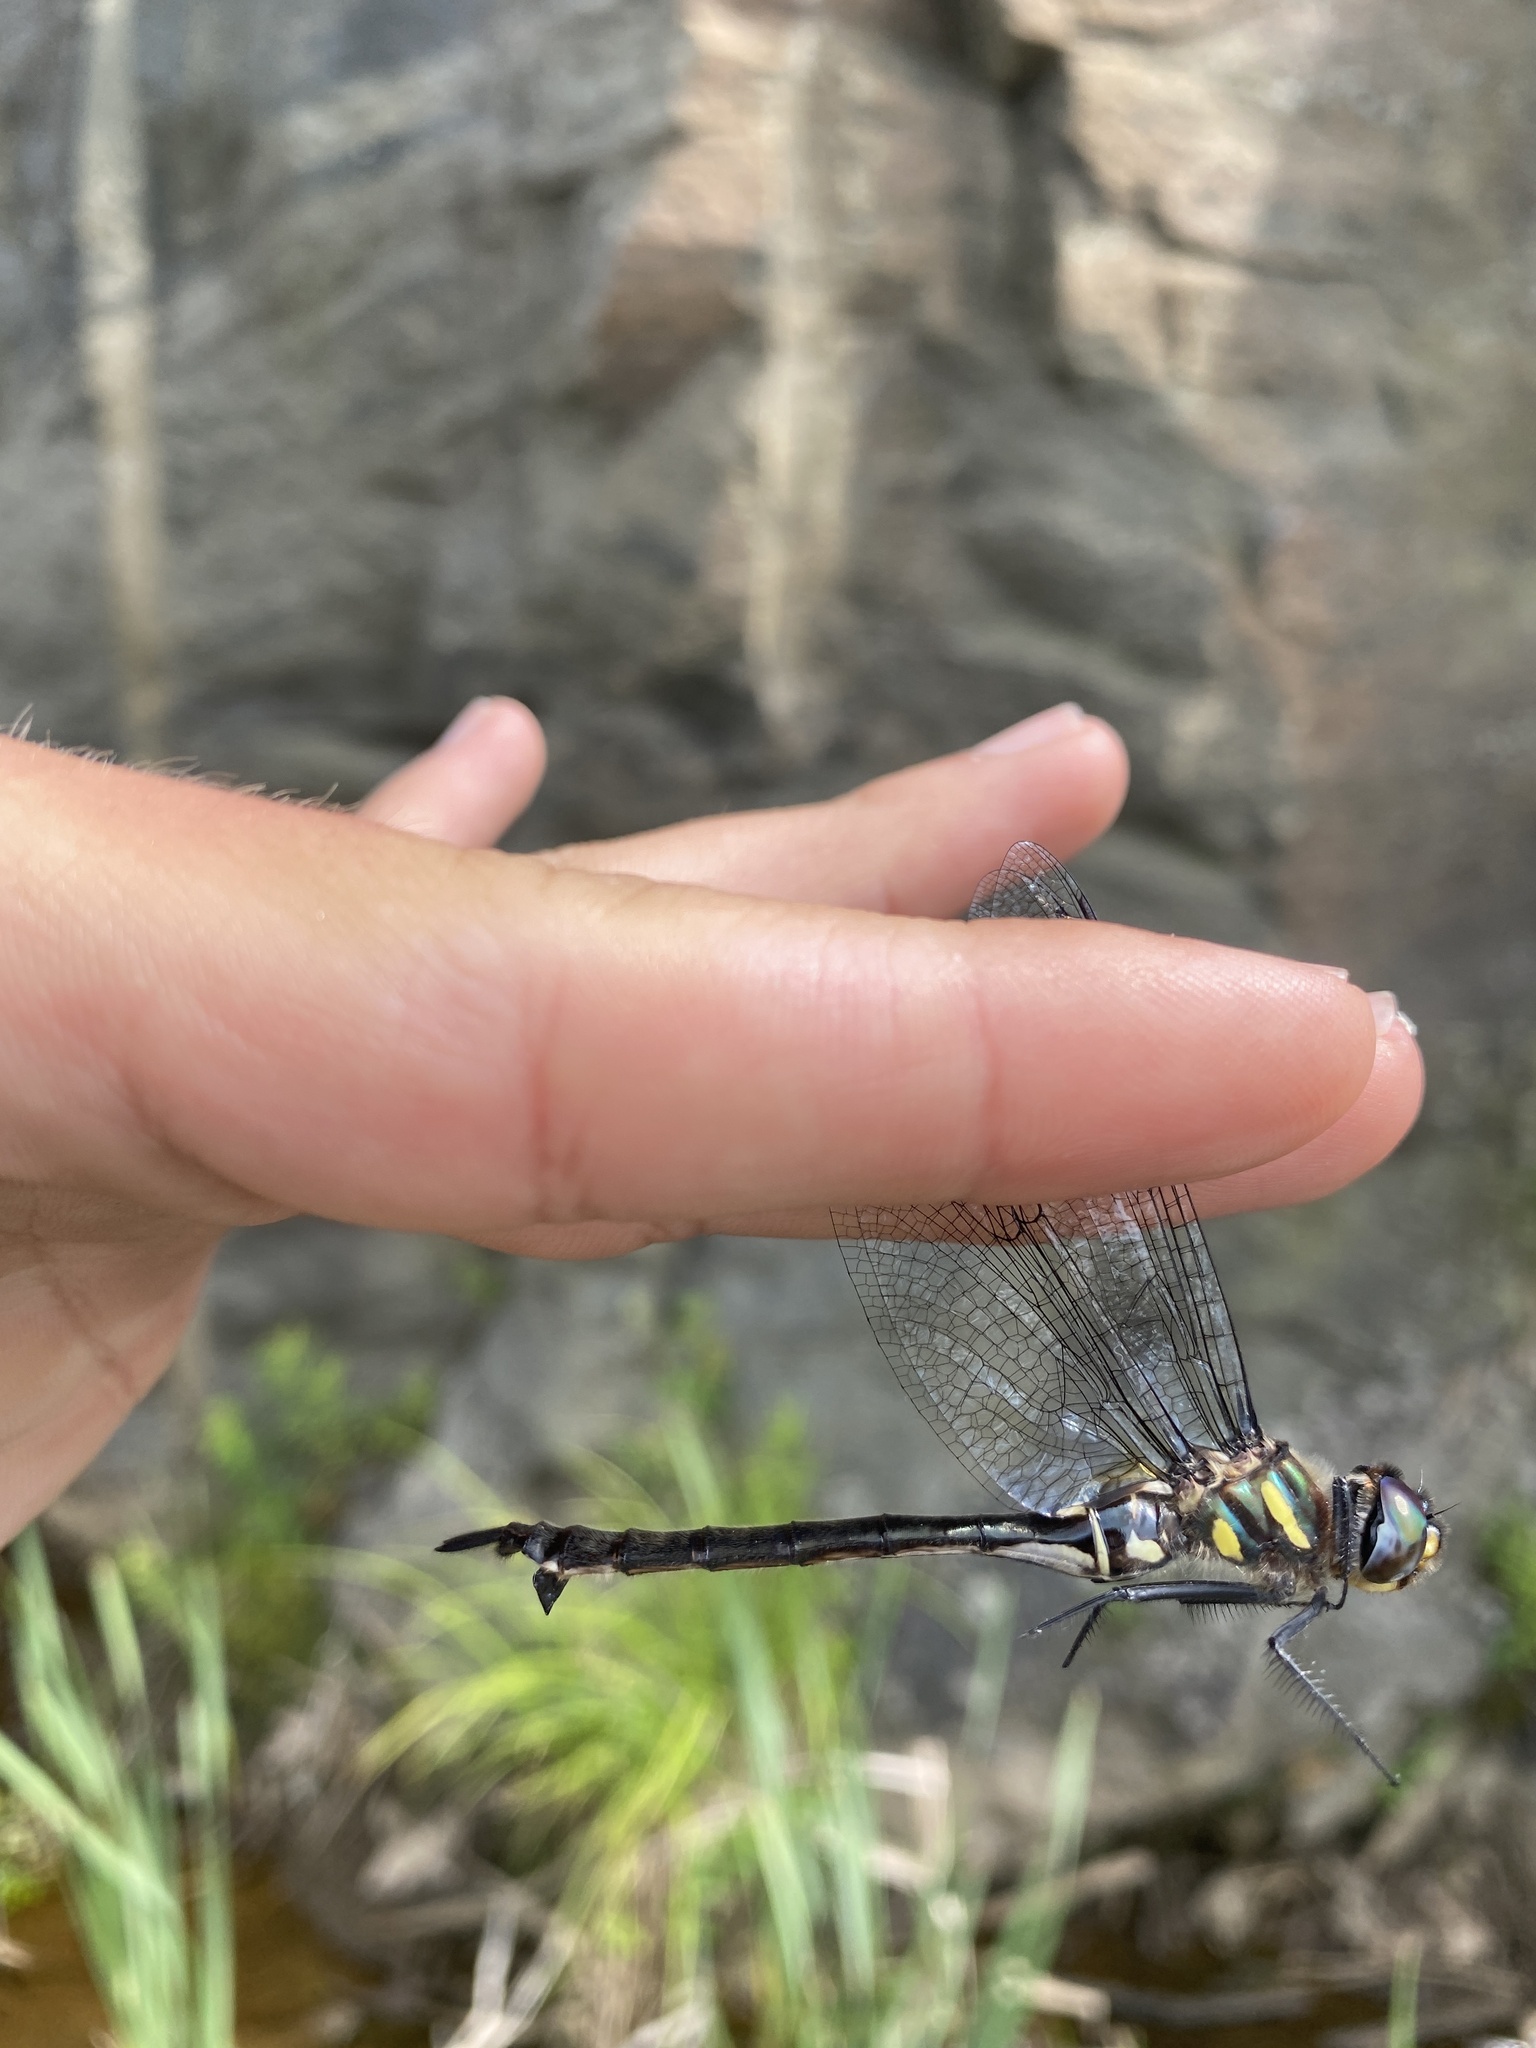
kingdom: Animalia
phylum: Arthropoda
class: Insecta
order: Odonata
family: Corduliidae
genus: Somatochlora
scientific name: Somatochlora elongata
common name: Ski-tipped emerald
